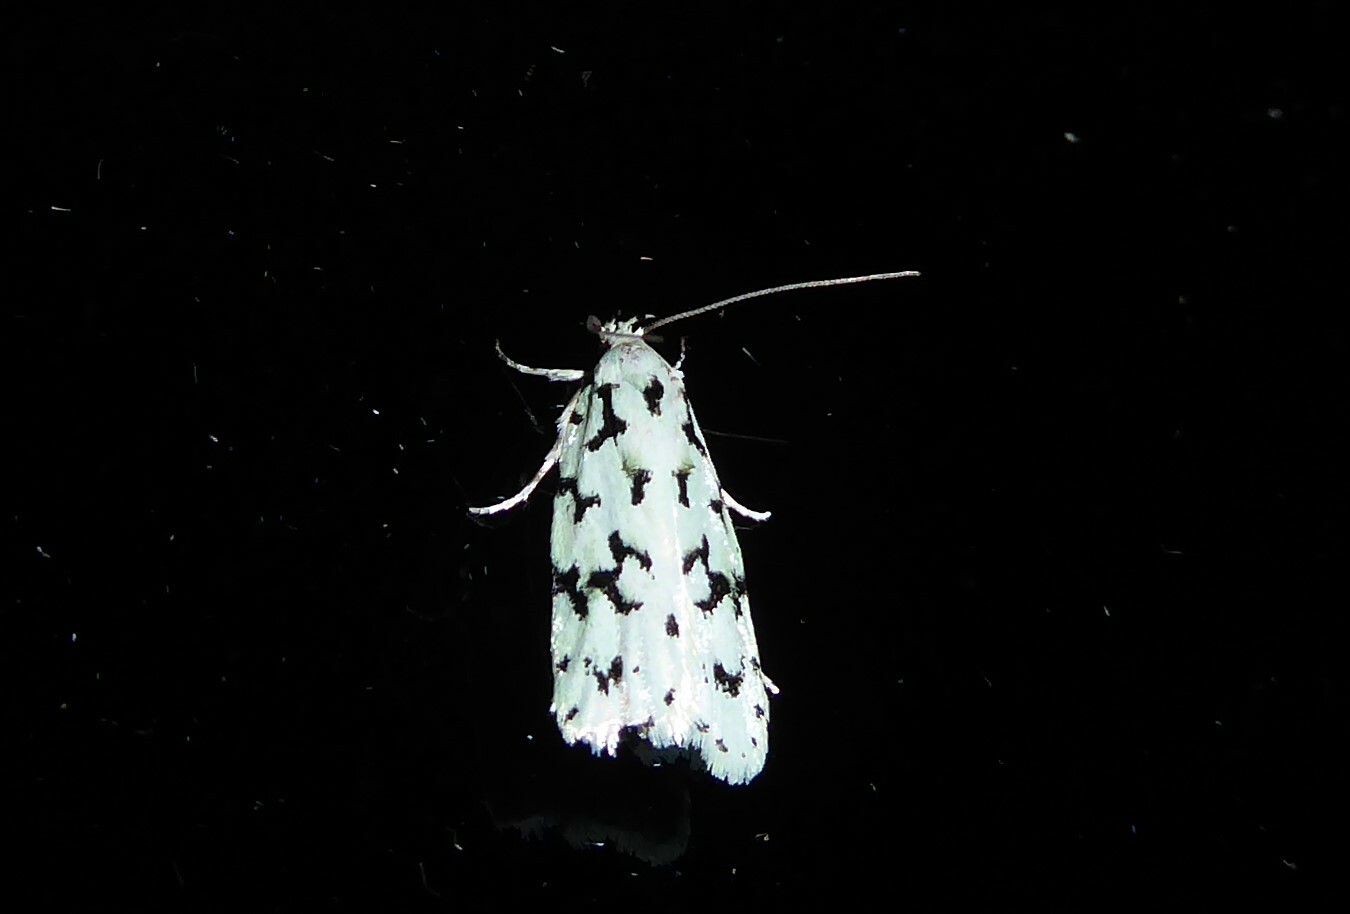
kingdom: Animalia
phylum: Arthropoda
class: Insecta
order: Lepidoptera
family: Oecophoridae
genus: Izatha
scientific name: Izatha huttoni
